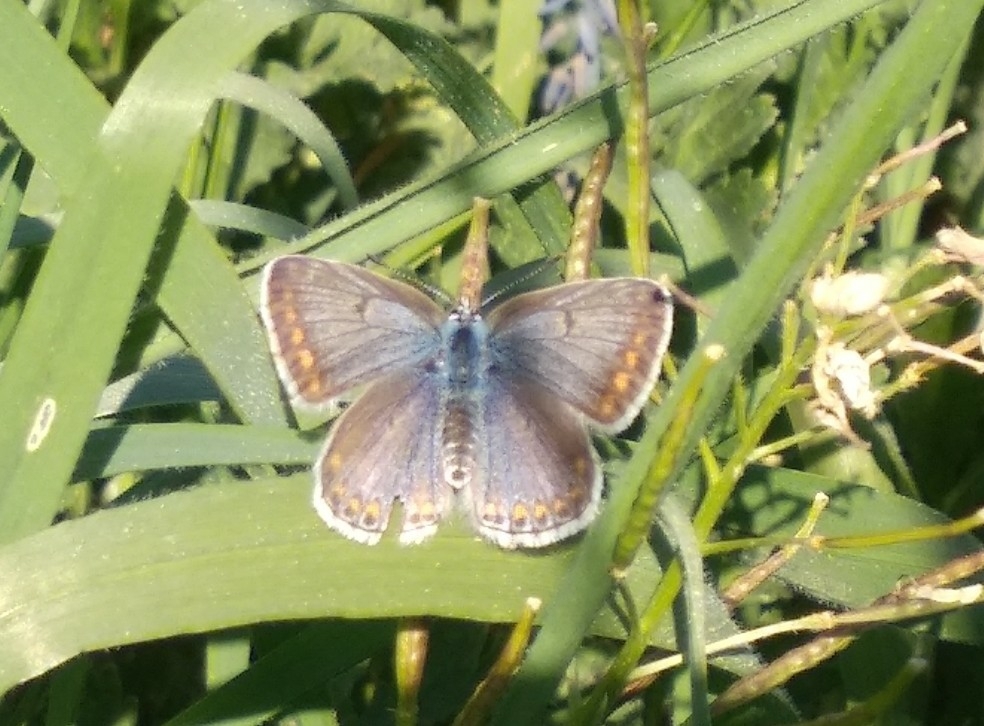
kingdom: Animalia
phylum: Arthropoda
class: Insecta
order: Lepidoptera
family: Lycaenidae
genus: Polyommatus
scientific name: Polyommatus icarus
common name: Common blue
